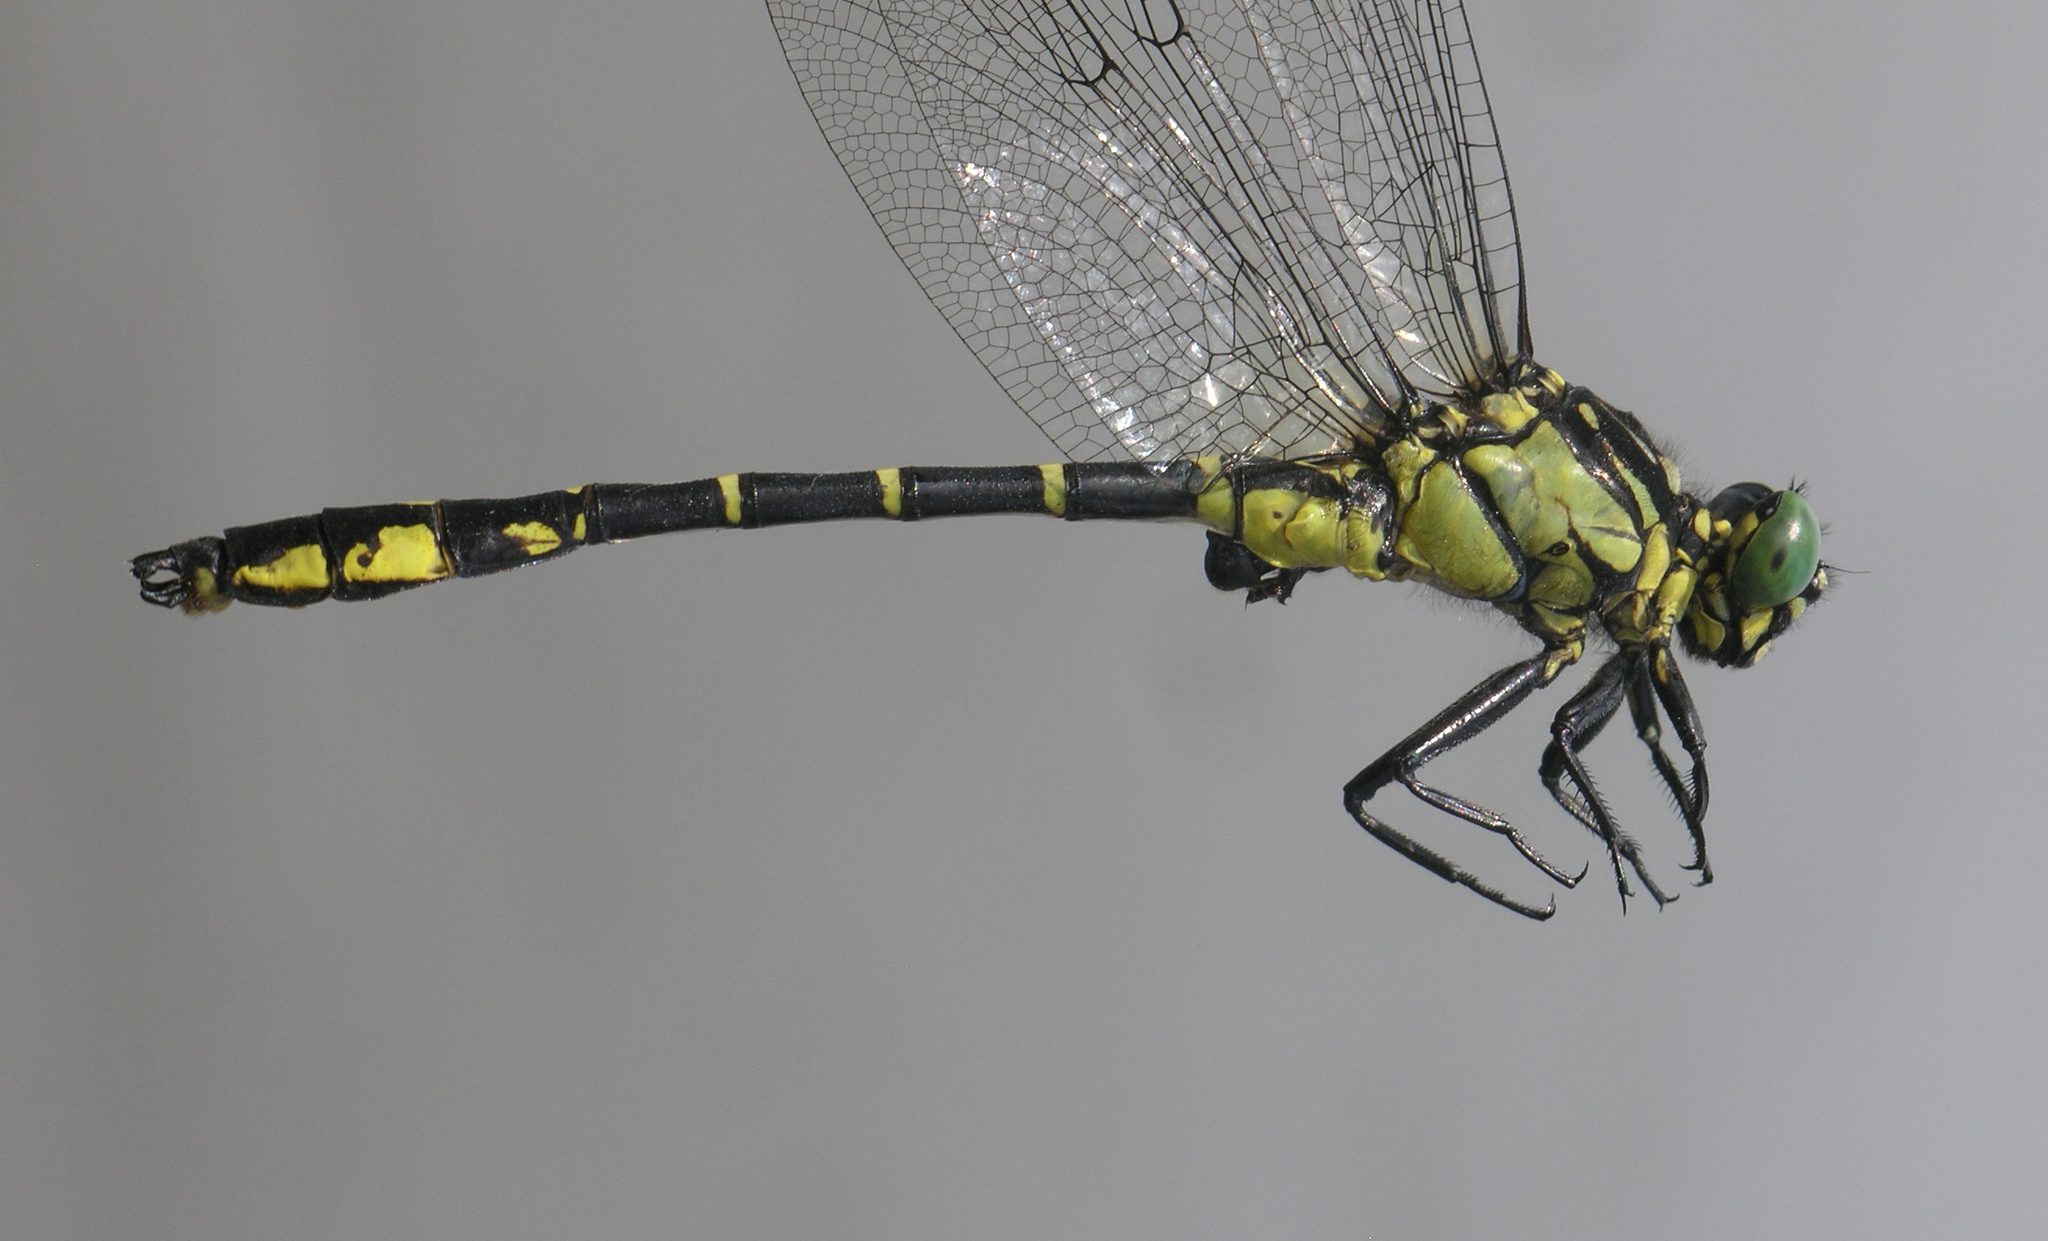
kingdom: Animalia
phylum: Arthropoda
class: Insecta
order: Odonata
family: Gomphidae
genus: Stylurus
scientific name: Stylurus annulatus
